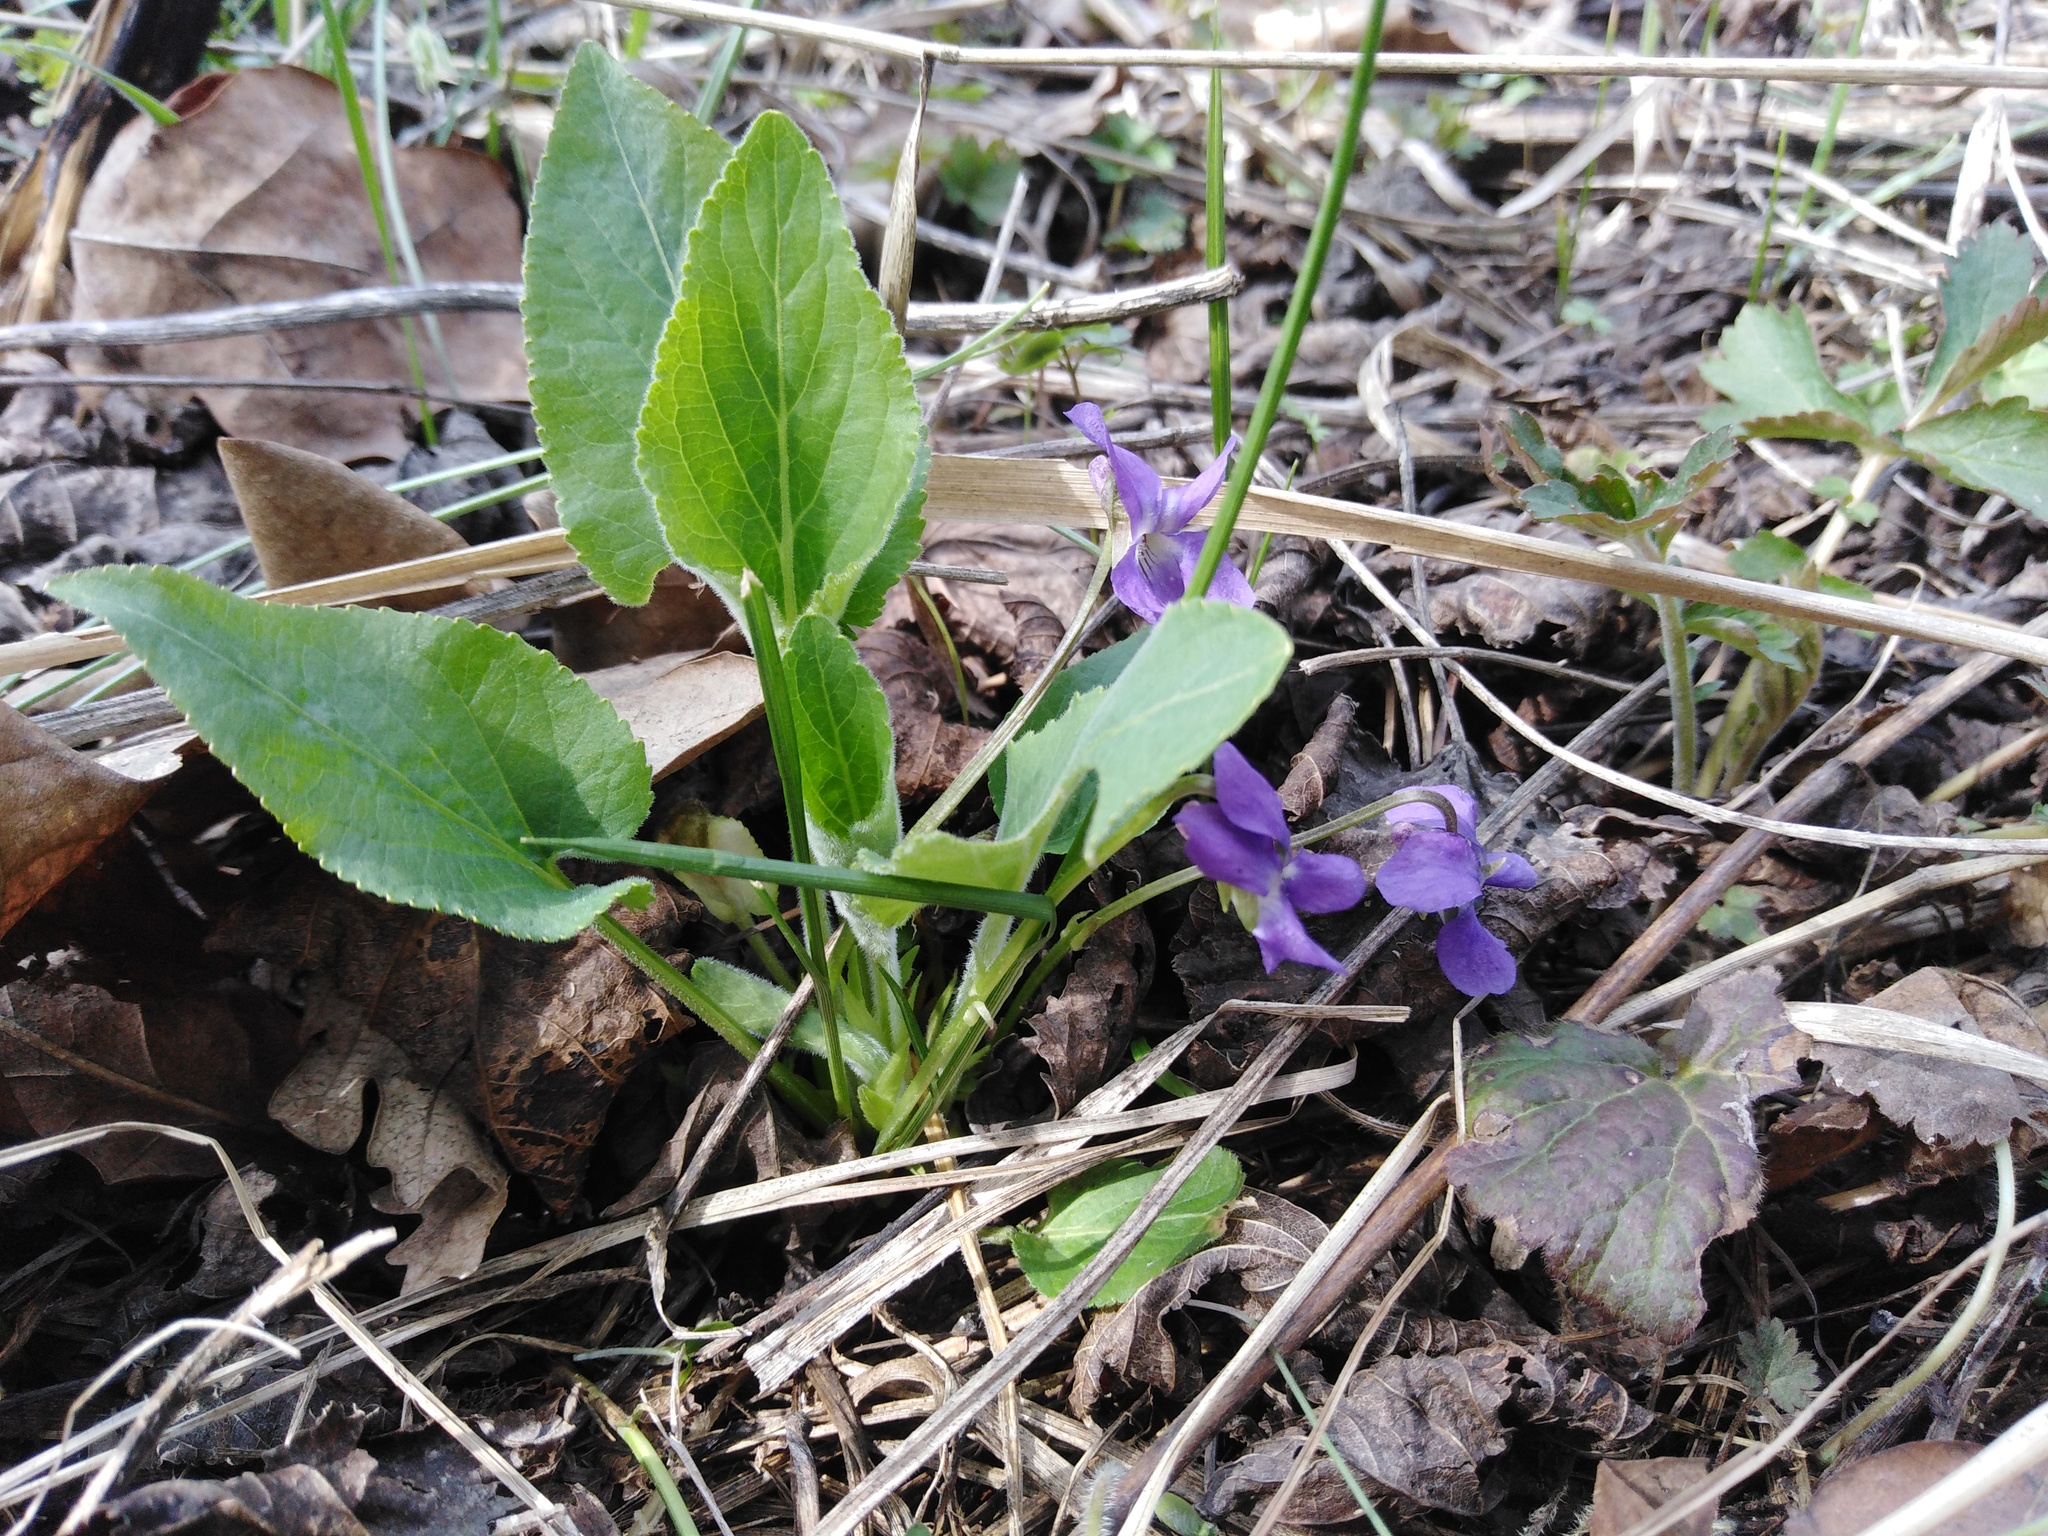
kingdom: Plantae
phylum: Tracheophyta
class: Magnoliopsida
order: Malpighiales
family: Violaceae
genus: Viola
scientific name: Viola hirta
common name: Hairy violet
